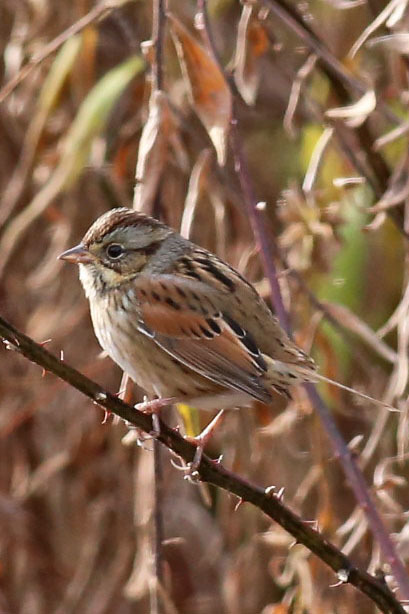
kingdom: Animalia
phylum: Chordata
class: Aves
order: Passeriformes
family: Passerellidae
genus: Melospiza
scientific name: Melospiza georgiana
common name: Swamp sparrow
